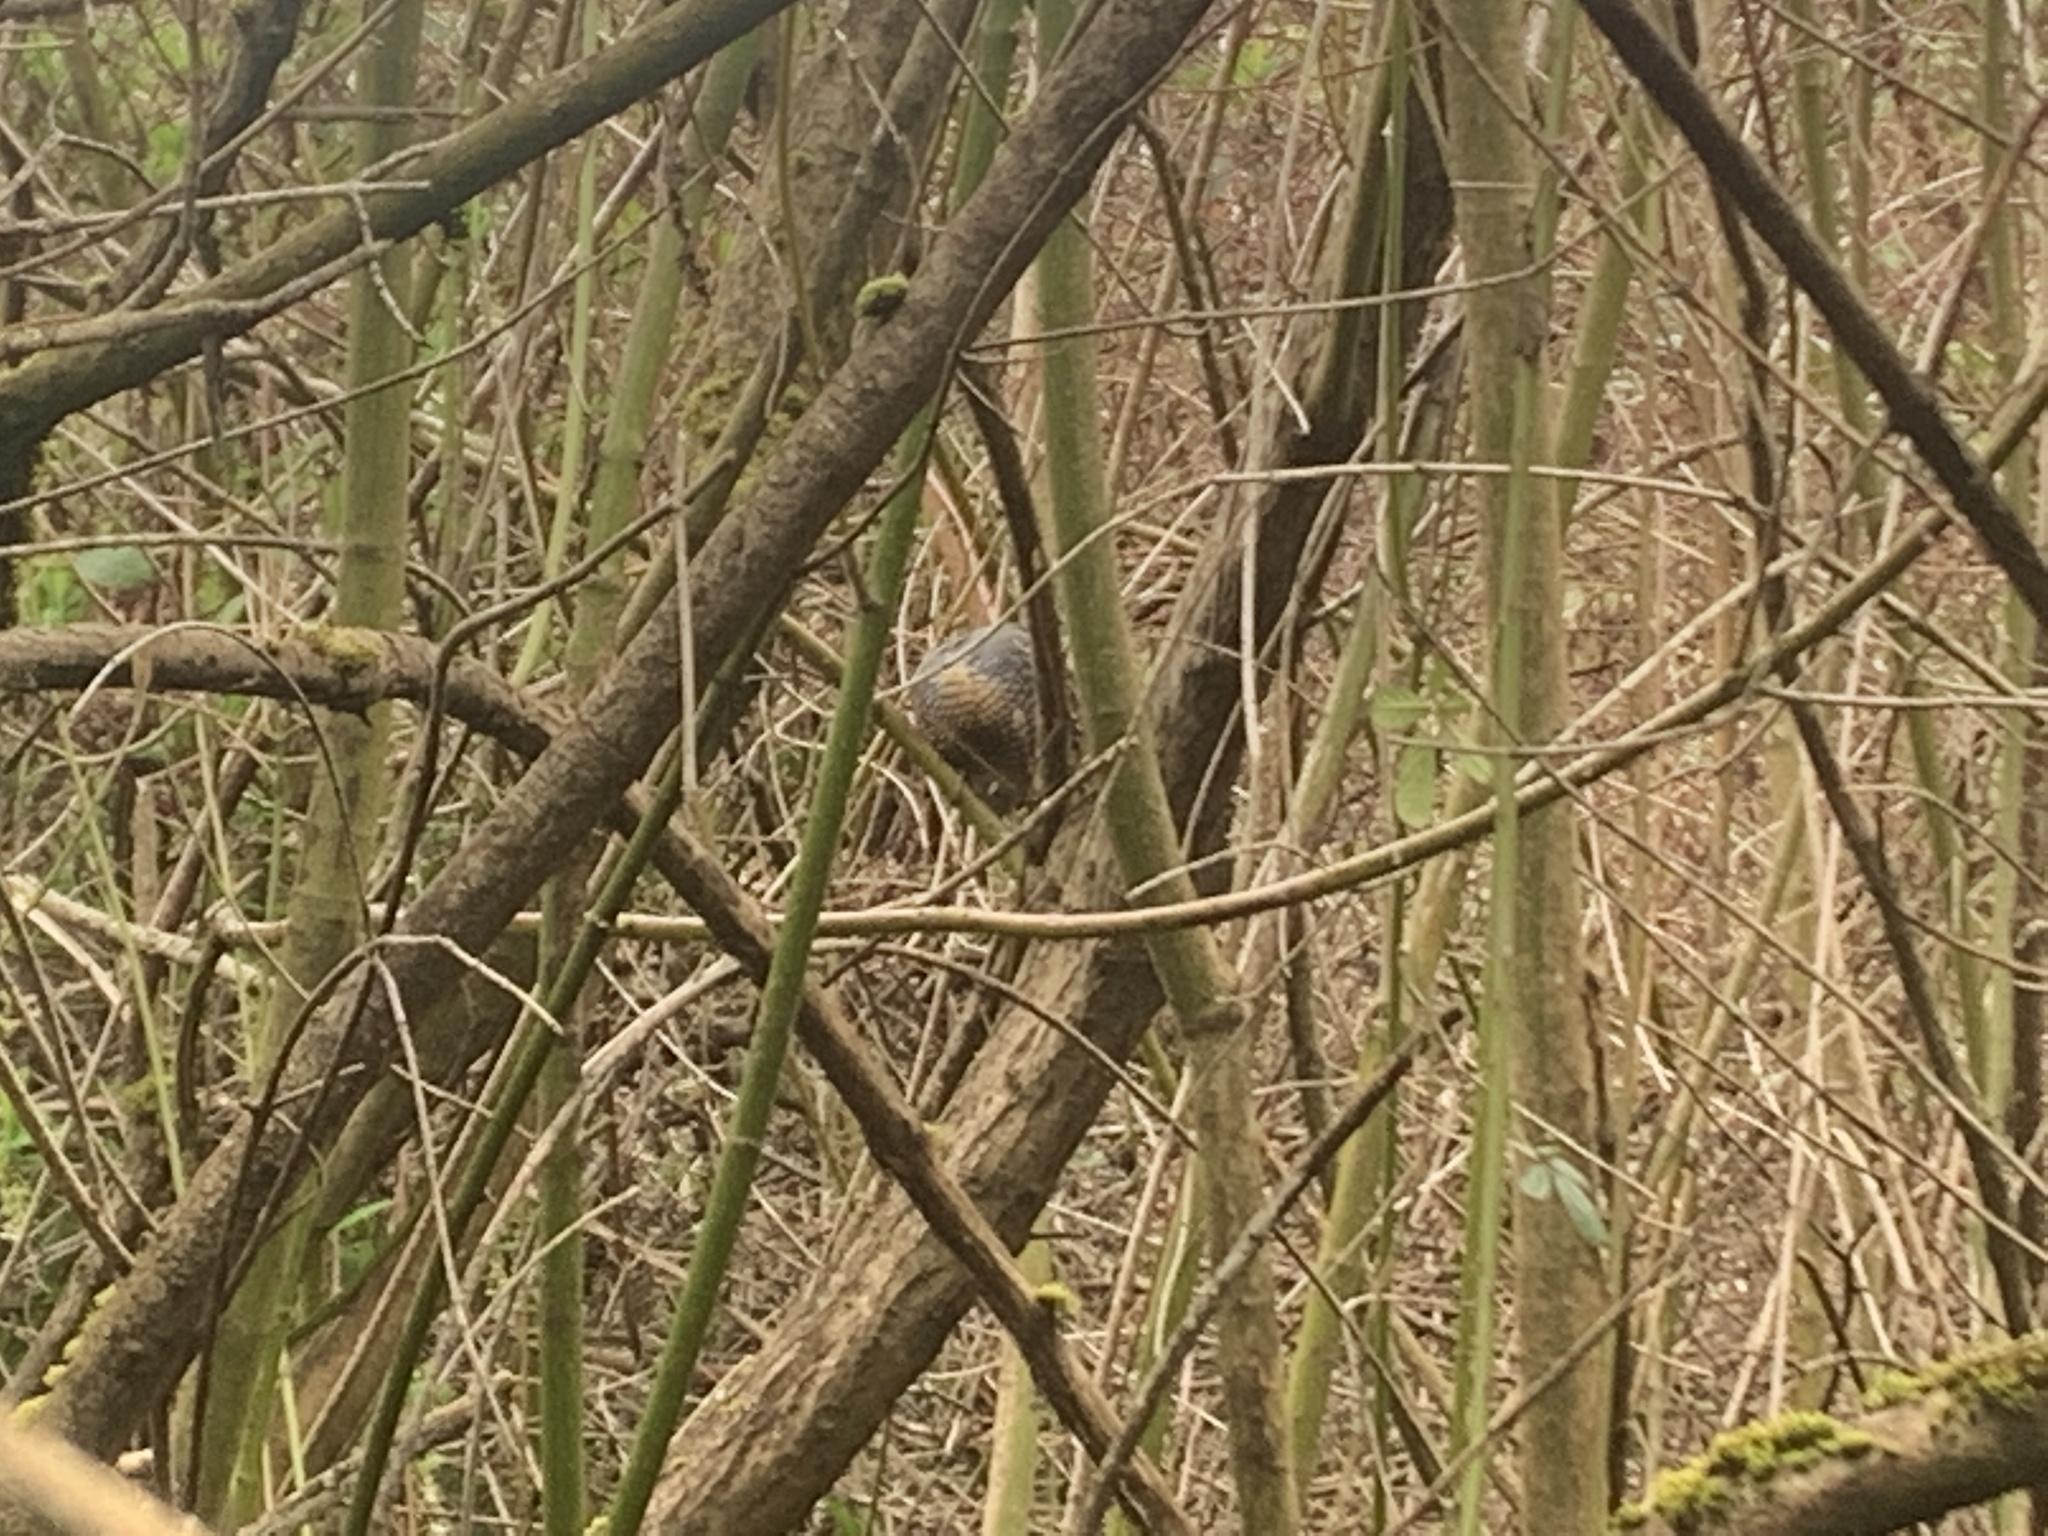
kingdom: Animalia
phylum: Chordata
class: Aves
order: Galliformes
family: Odontophoridae
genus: Callipepla
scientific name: Callipepla californica
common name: California quail
